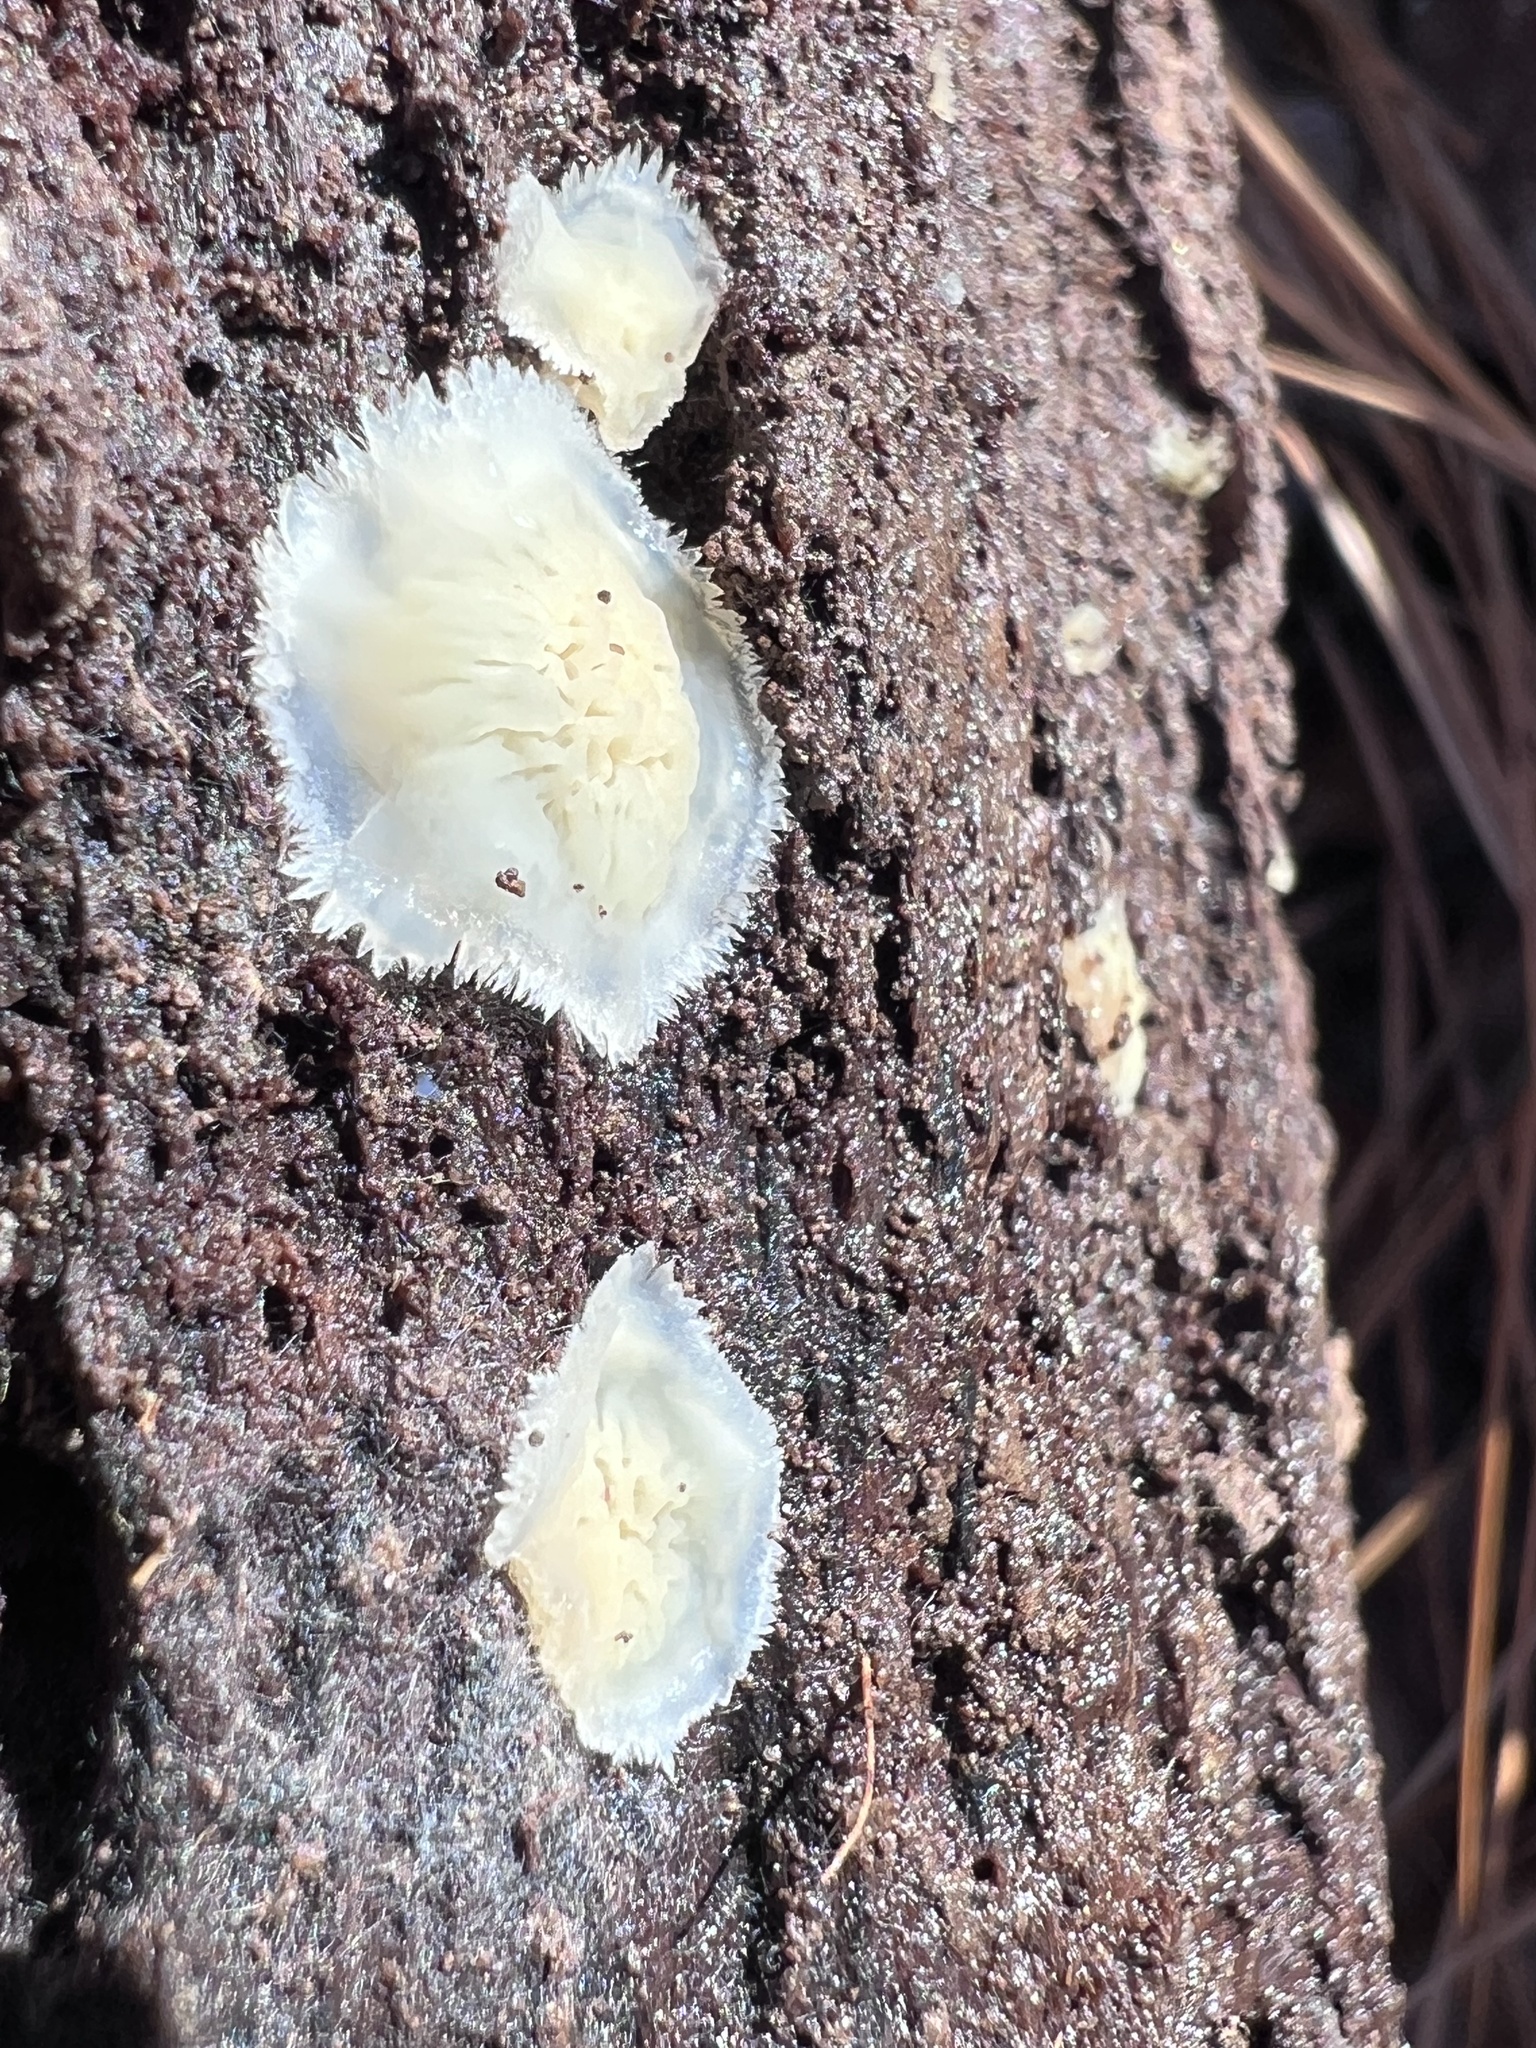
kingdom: Fungi
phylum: Basidiomycota
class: Agaricomycetes
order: Polyporales
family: Meruliaceae
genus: Phlebia
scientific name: Phlebia tremellosa
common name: Jelly rot
